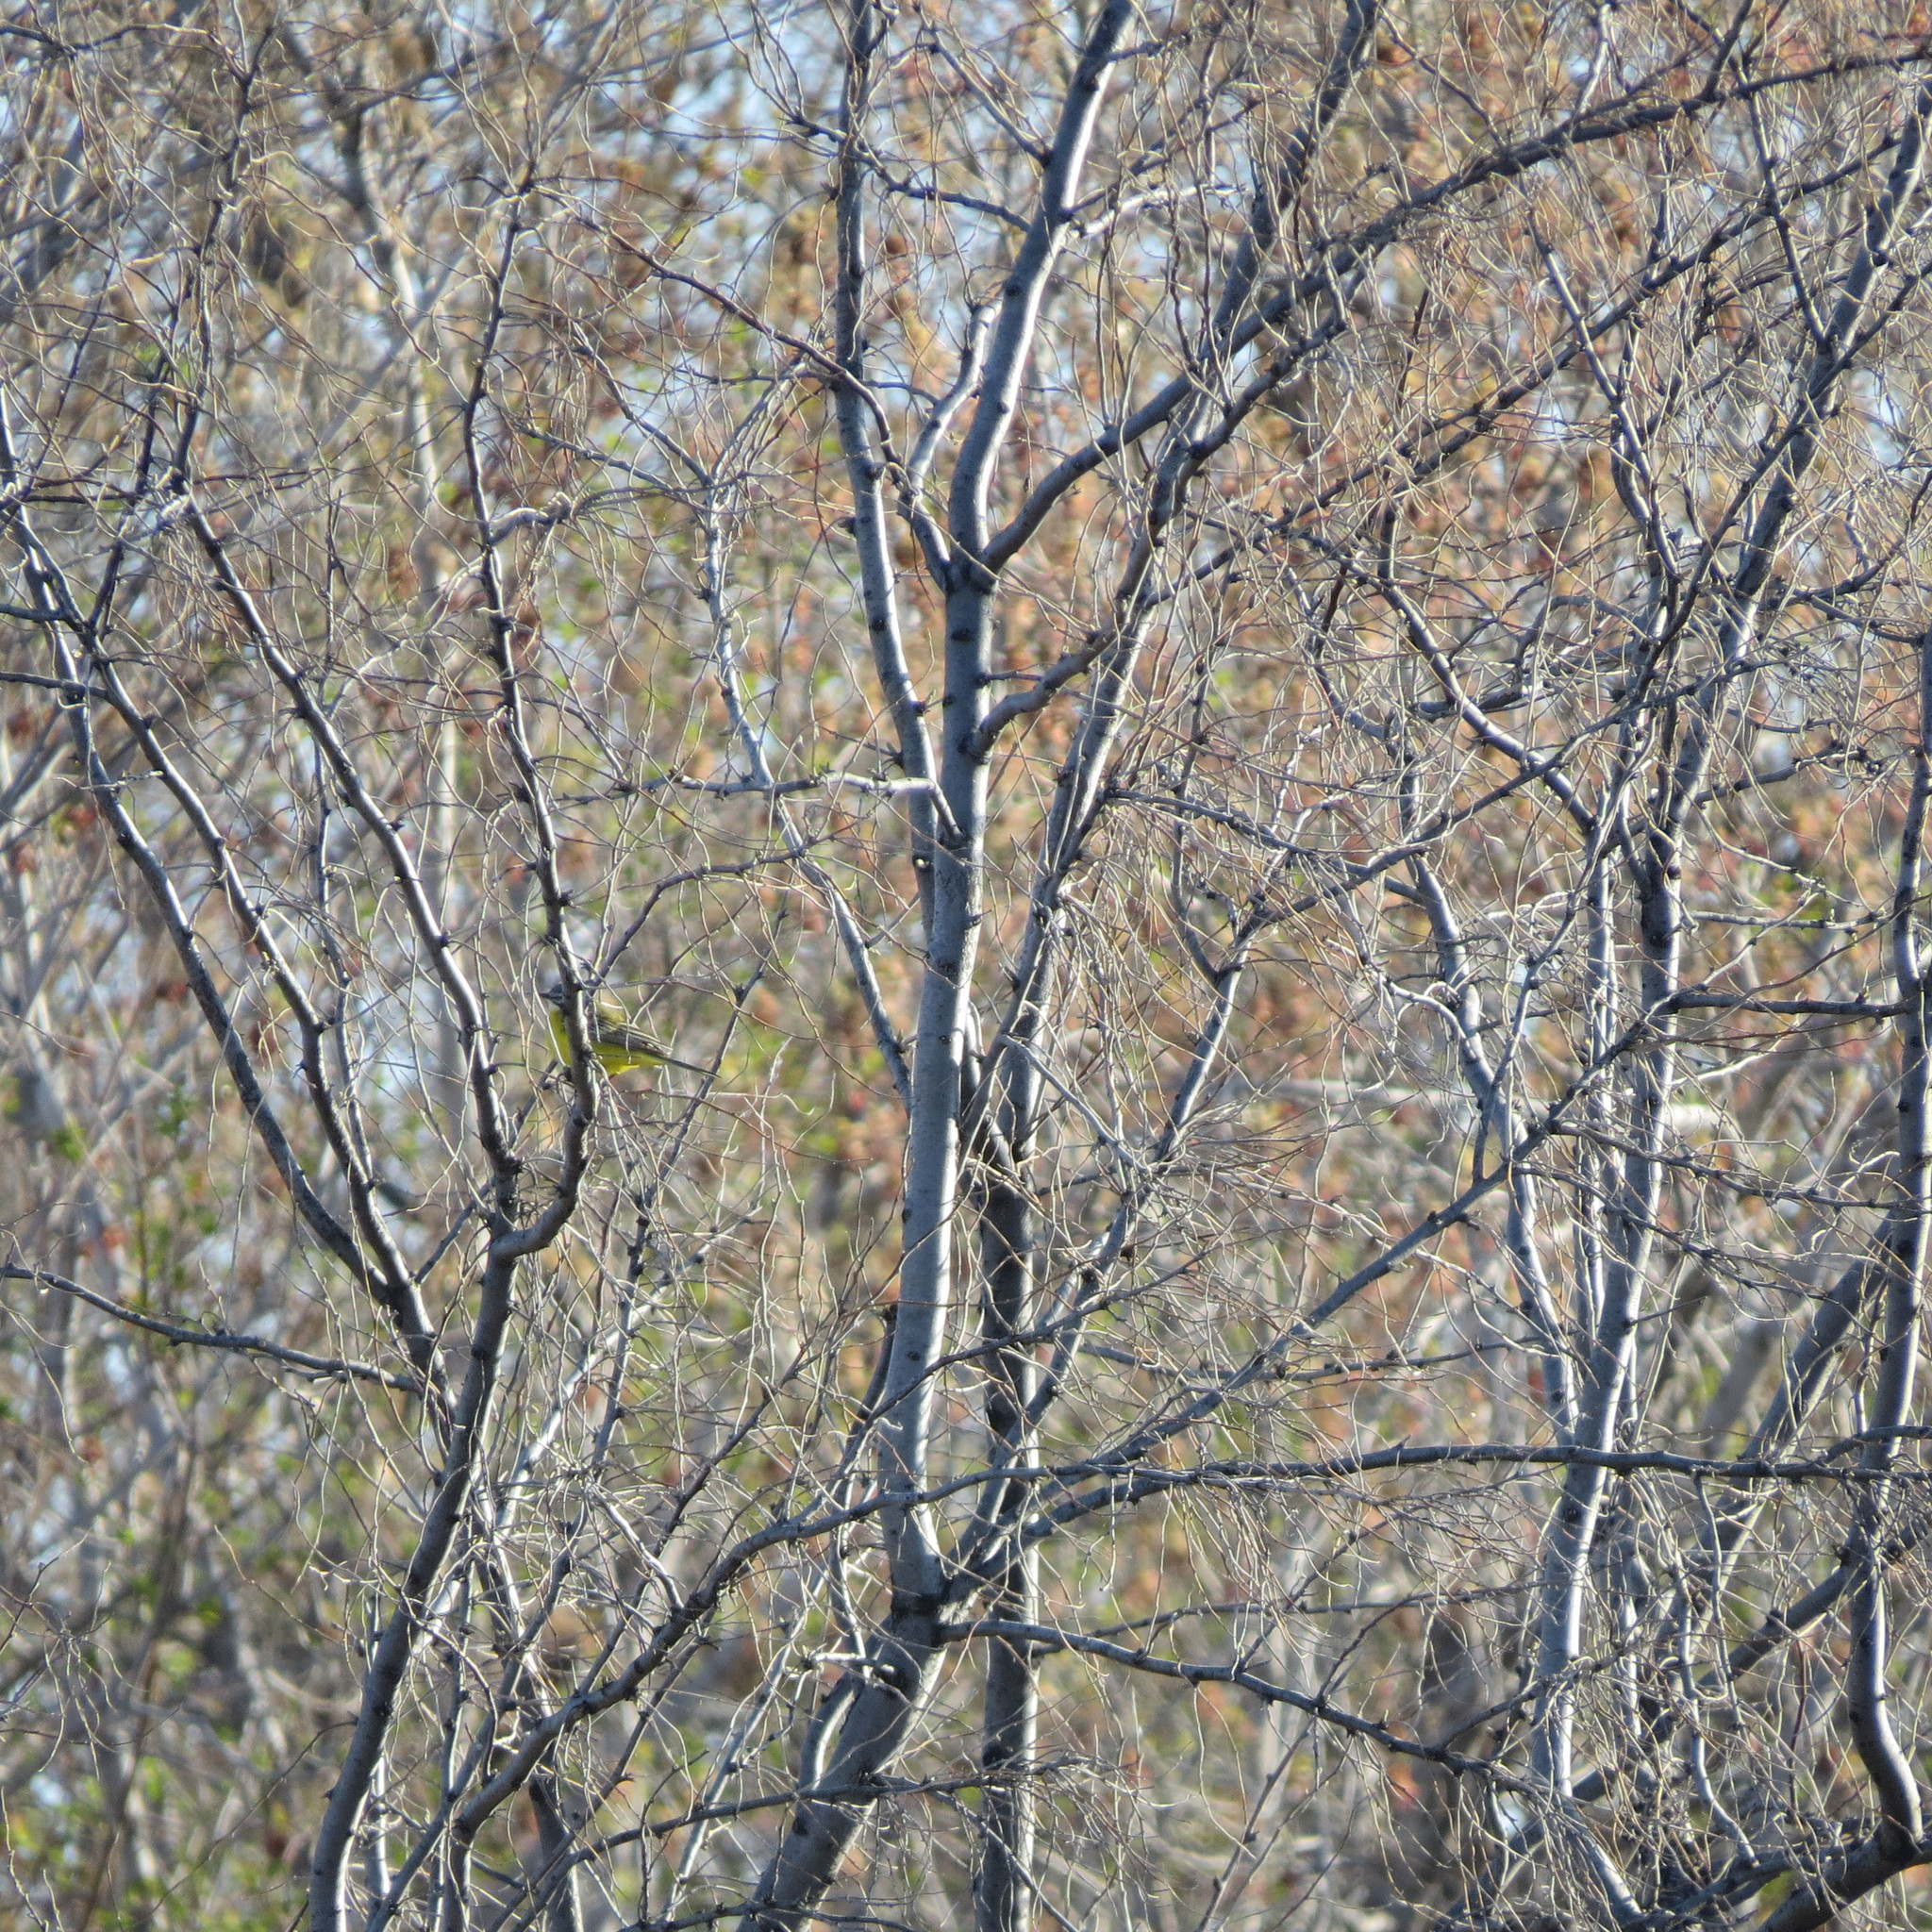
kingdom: Animalia
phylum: Chordata
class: Aves
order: Passeriformes
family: Motacillidae
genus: Motacilla
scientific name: Motacilla flava
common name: Western yellow wagtail
